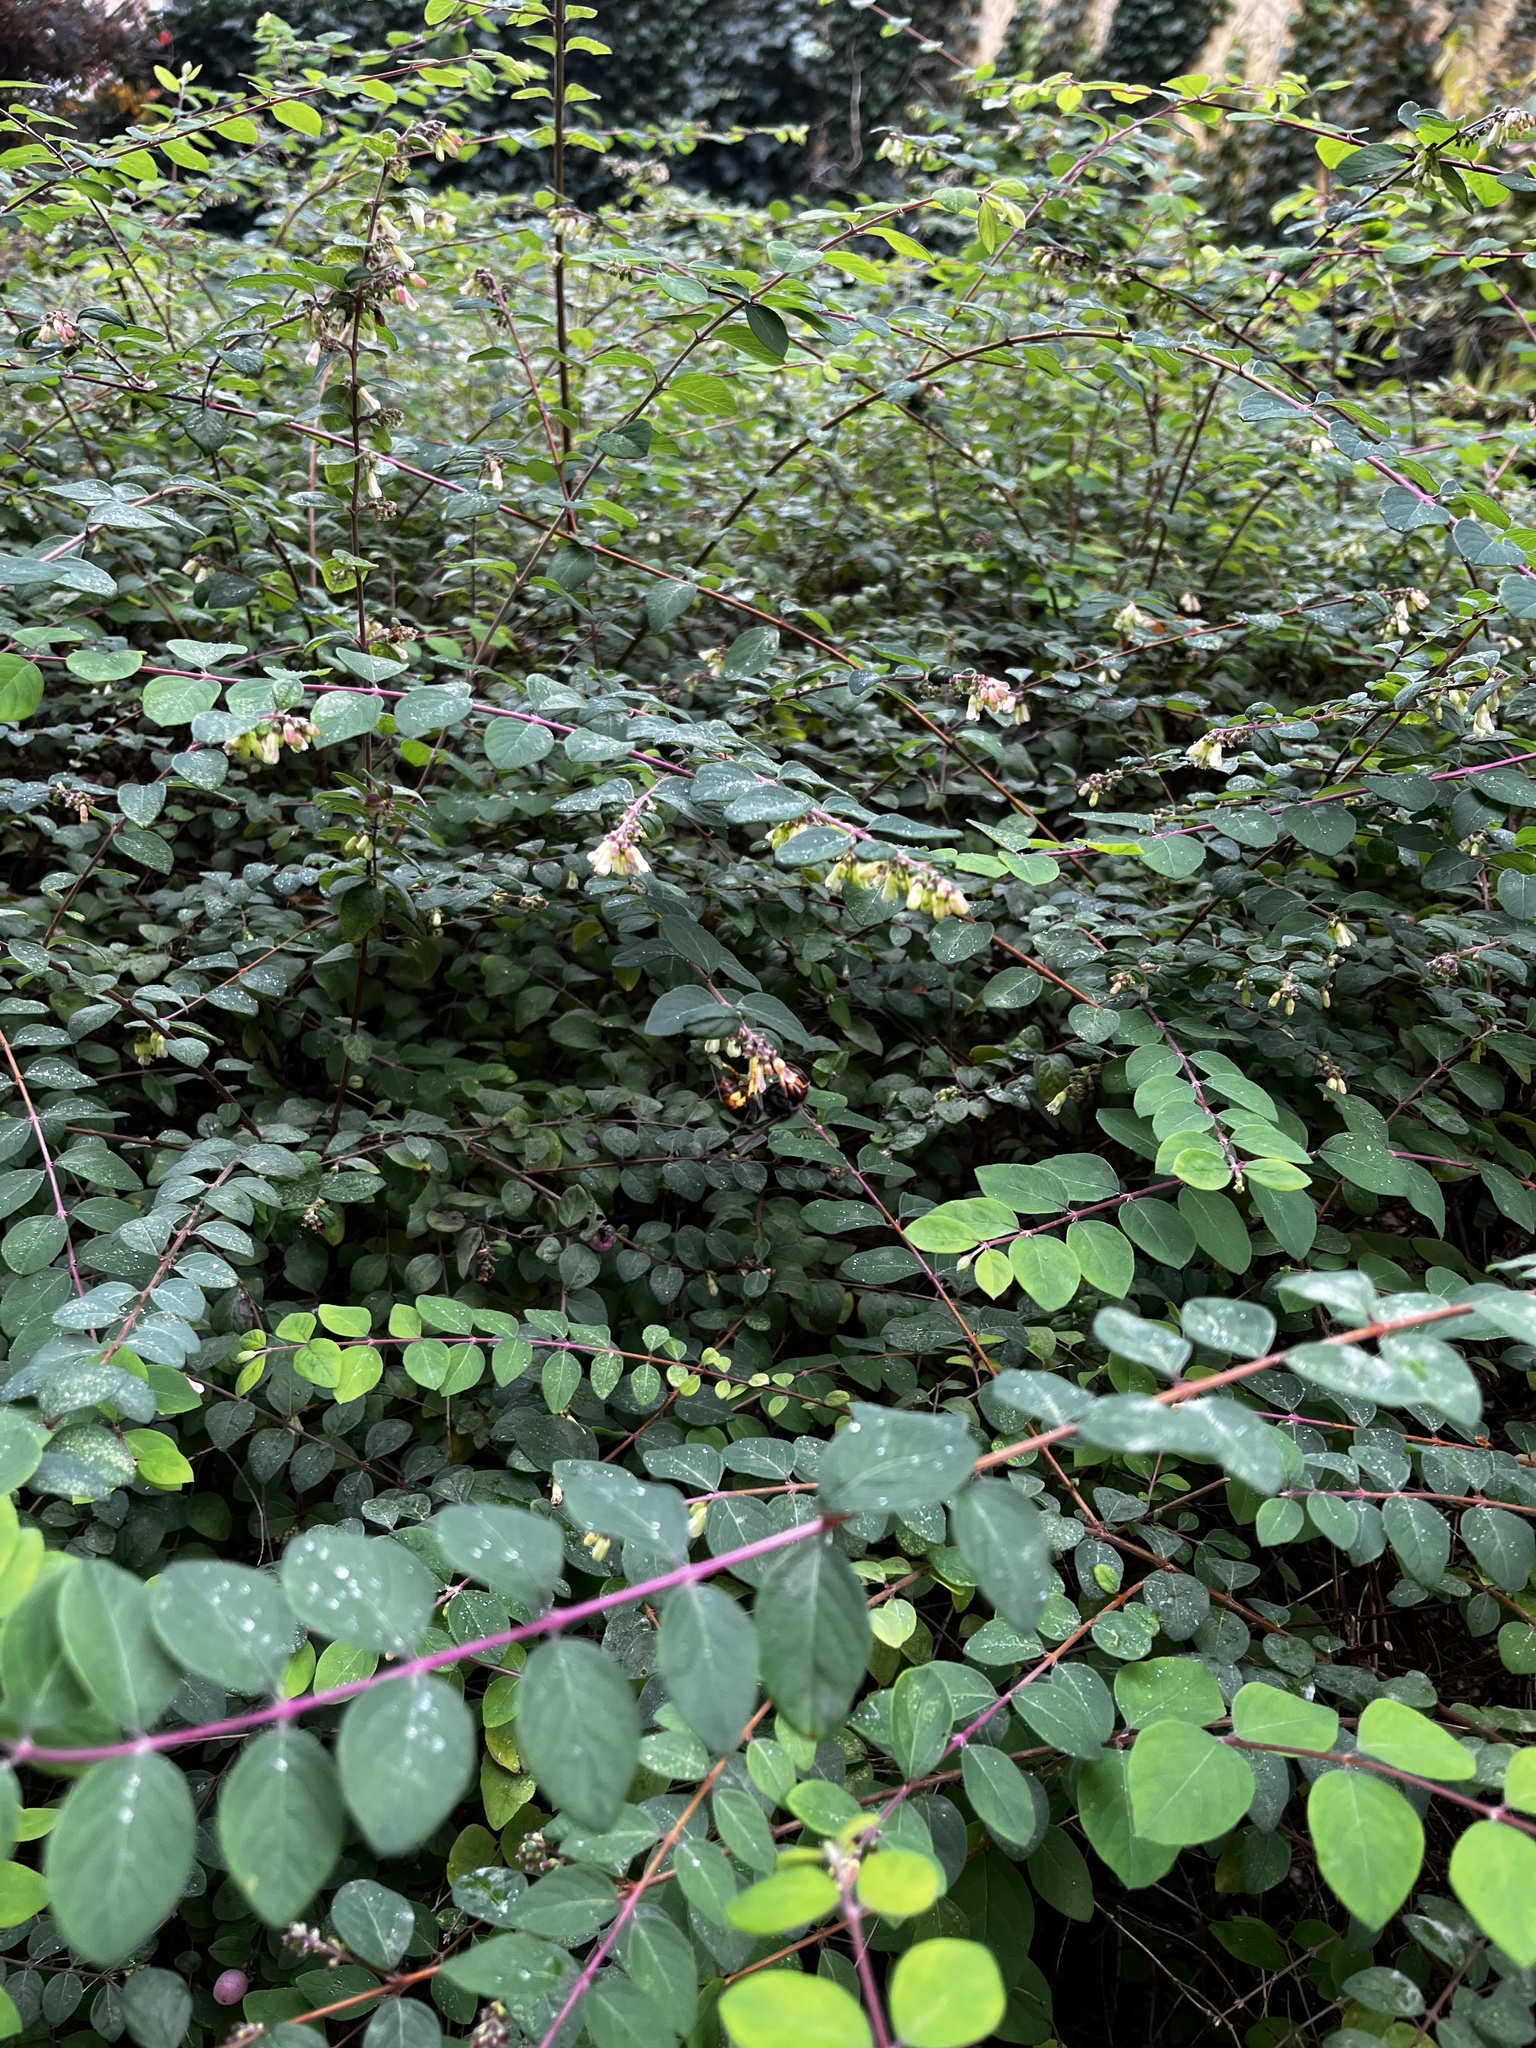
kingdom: Animalia
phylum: Arthropoda
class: Insecta
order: Hymenoptera
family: Vespidae
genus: Vespa
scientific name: Vespa velutina
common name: Asian hornet
